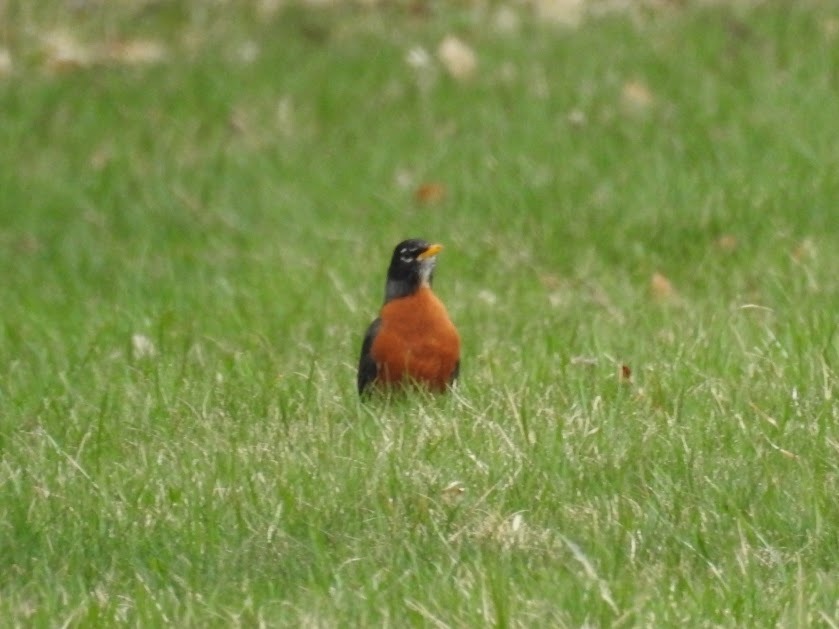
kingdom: Animalia
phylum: Chordata
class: Aves
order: Passeriformes
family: Turdidae
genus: Turdus
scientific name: Turdus migratorius
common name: American robin
